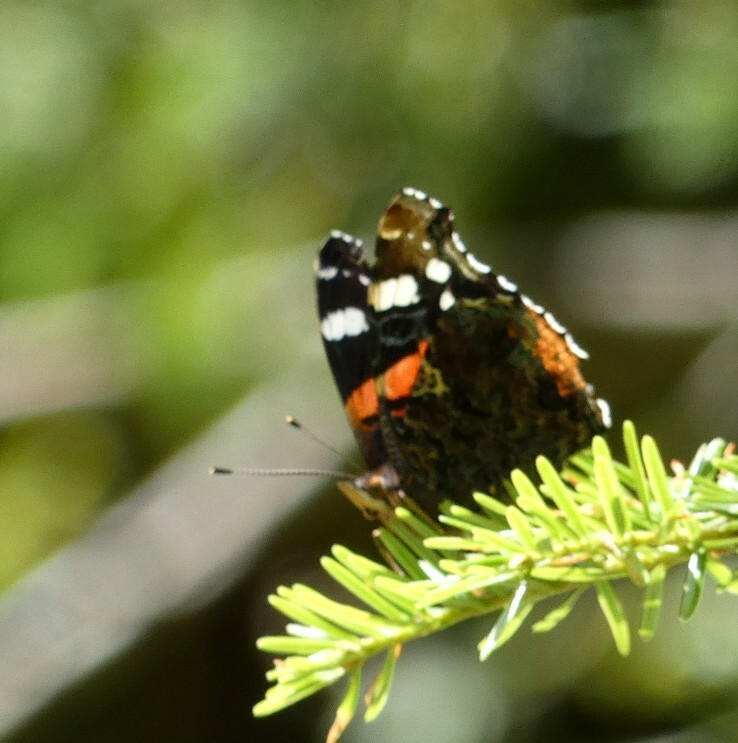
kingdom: Animalia
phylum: Arthropoda
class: Insecta
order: Lepidoptera
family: Nymphalidae
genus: Vanessa
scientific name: Vanessa atalanta
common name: Red admiral
